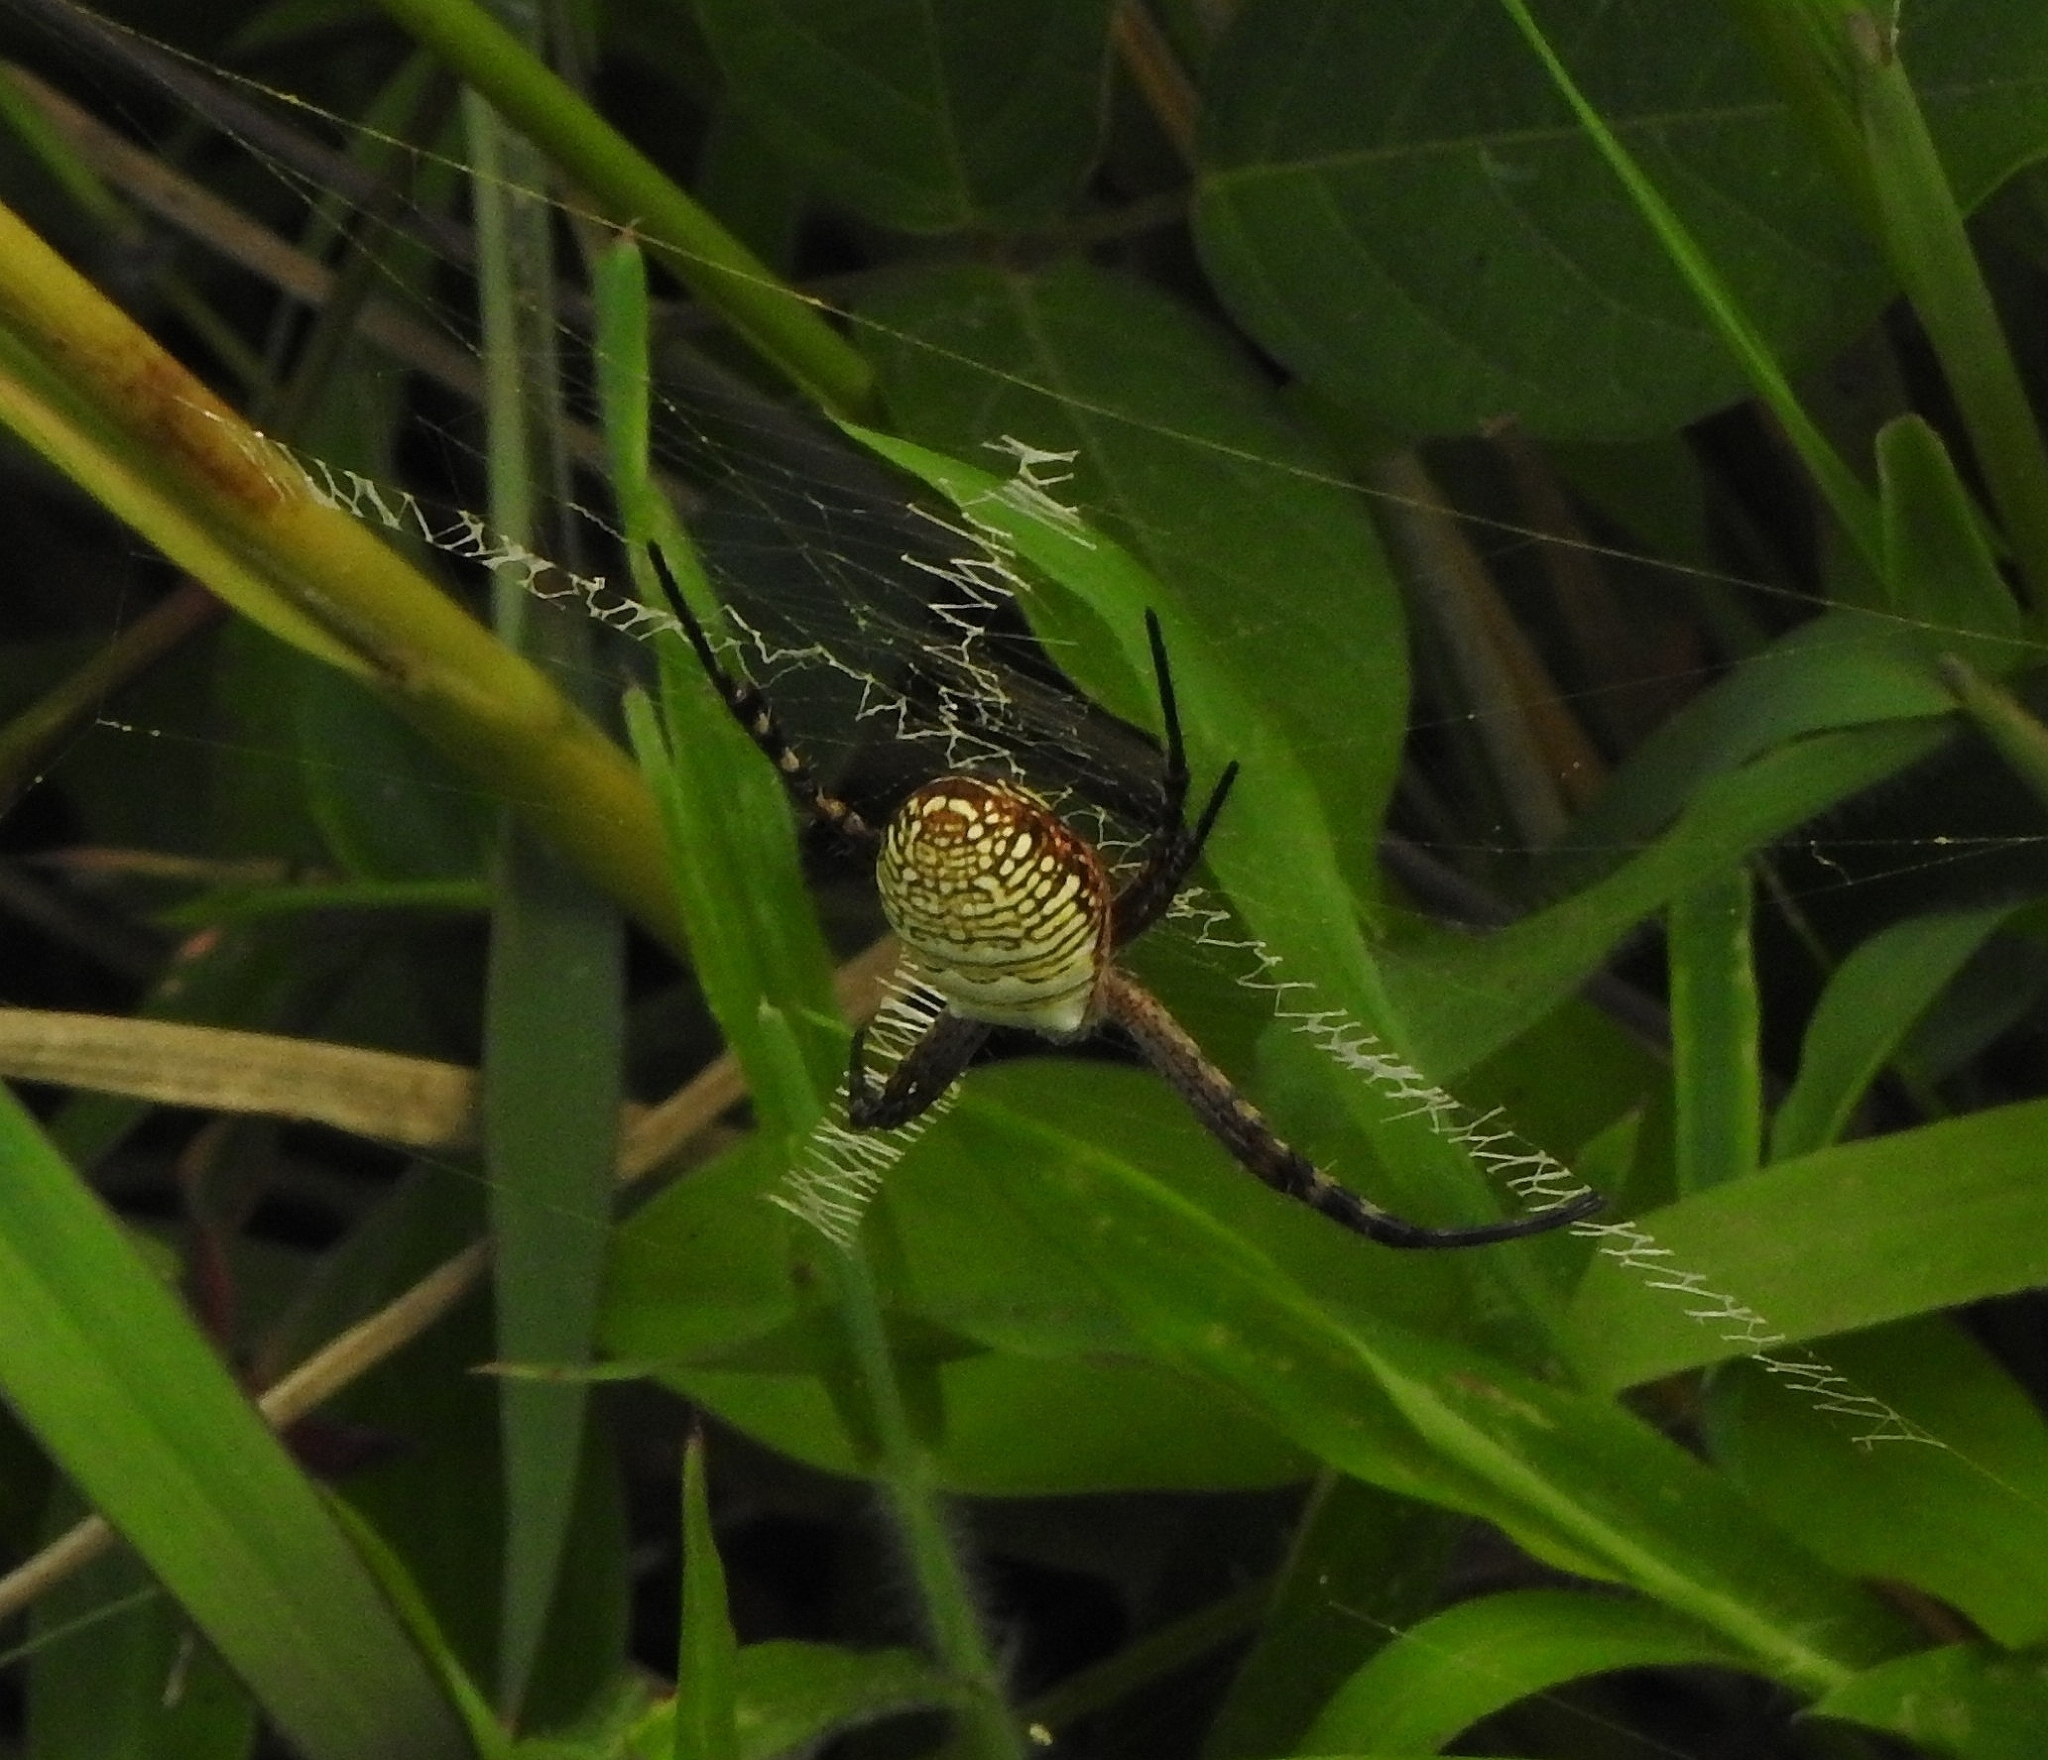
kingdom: Animalia
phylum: Arthropoda
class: Arachnida
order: Araneae
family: Araneidae
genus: Argiope
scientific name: Argiope aemula
